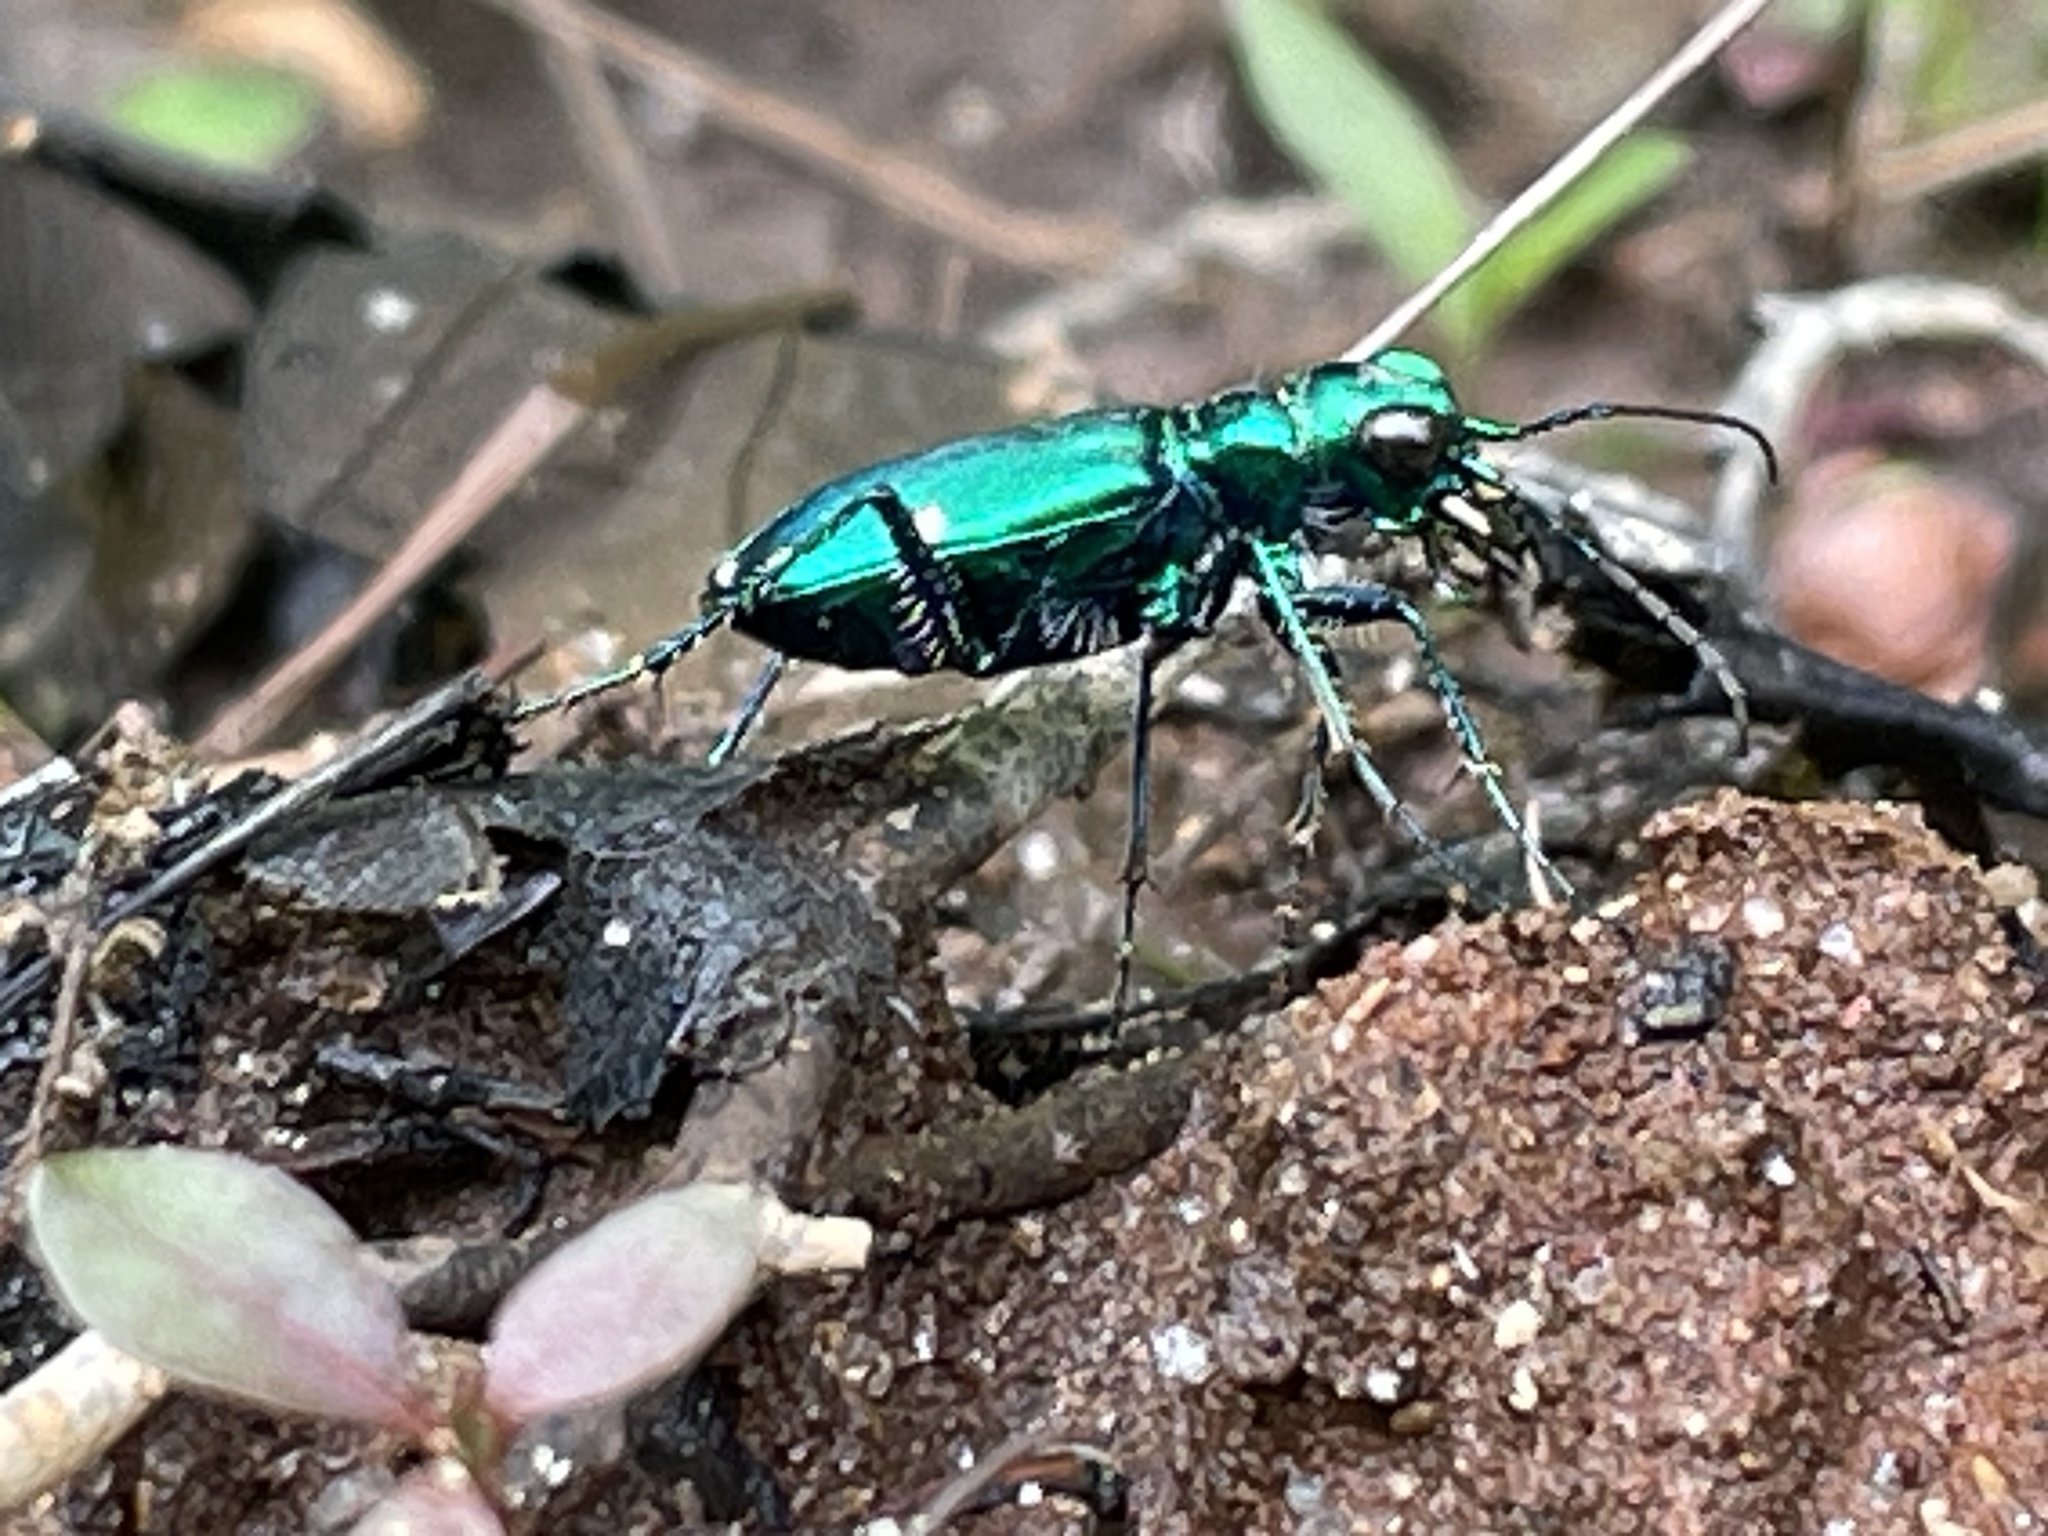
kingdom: Animalia
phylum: Arthropoda
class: Insecta
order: Coleoptera
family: Carabidae
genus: Cicindela
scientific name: Cicindela sexguttata
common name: Six-spotted tiger beetle
